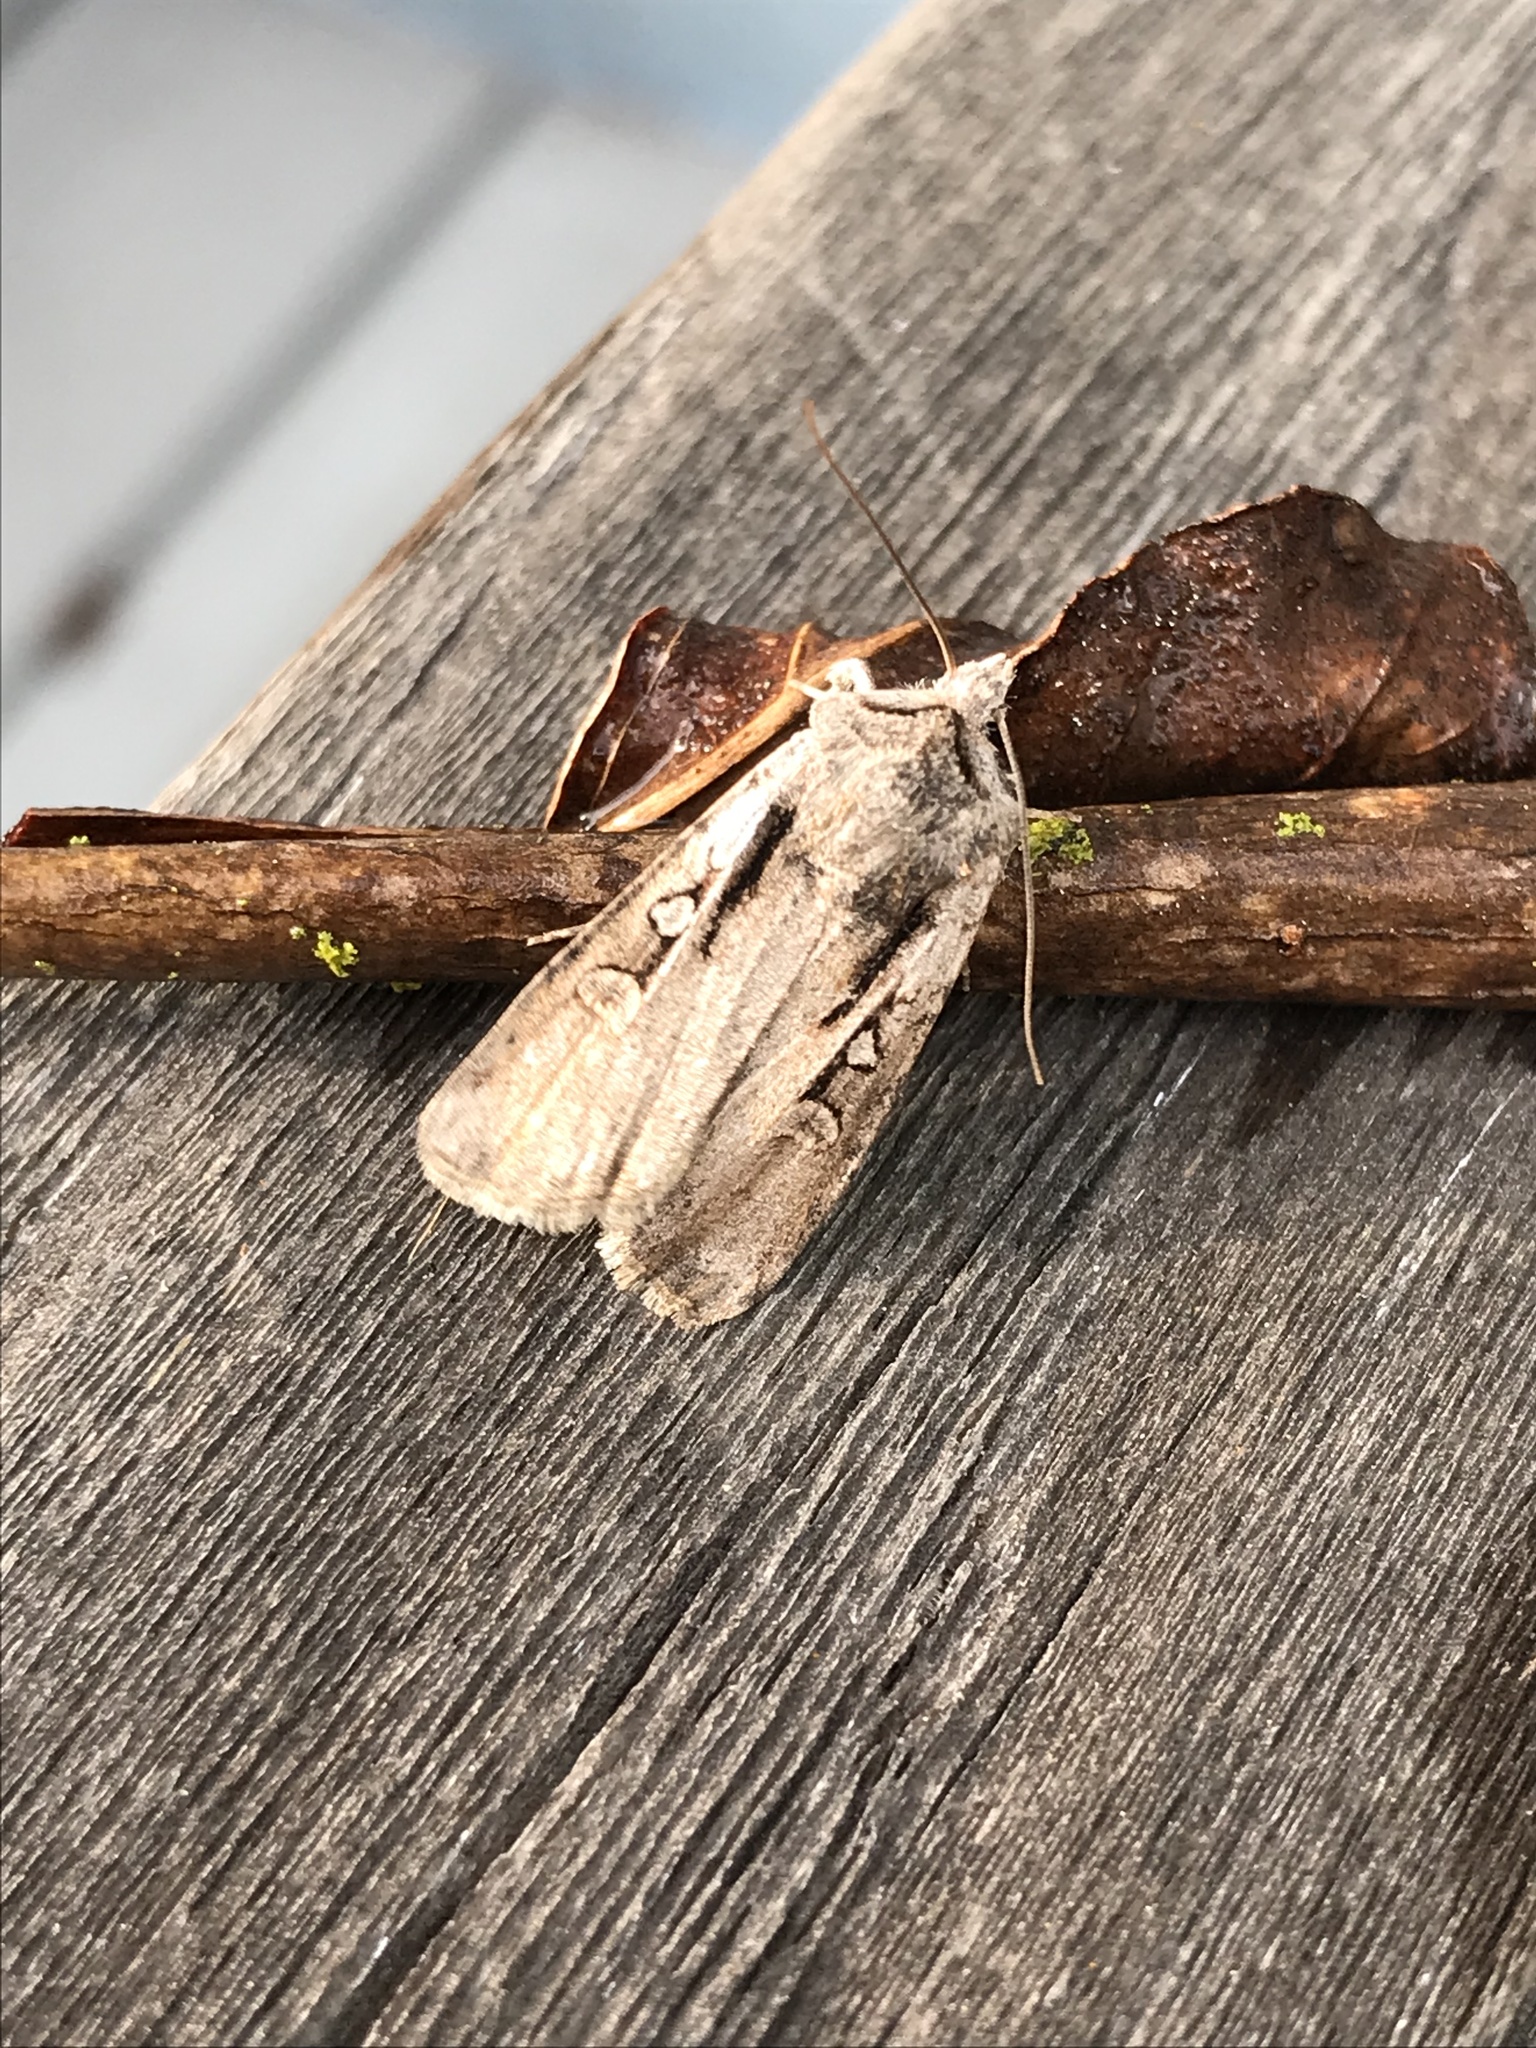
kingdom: Animalia
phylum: Arthropoda
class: Insecta
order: Lepidoptera
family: Noctuidae
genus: Hemieuxoa
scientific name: Hemieuxoa rudens
